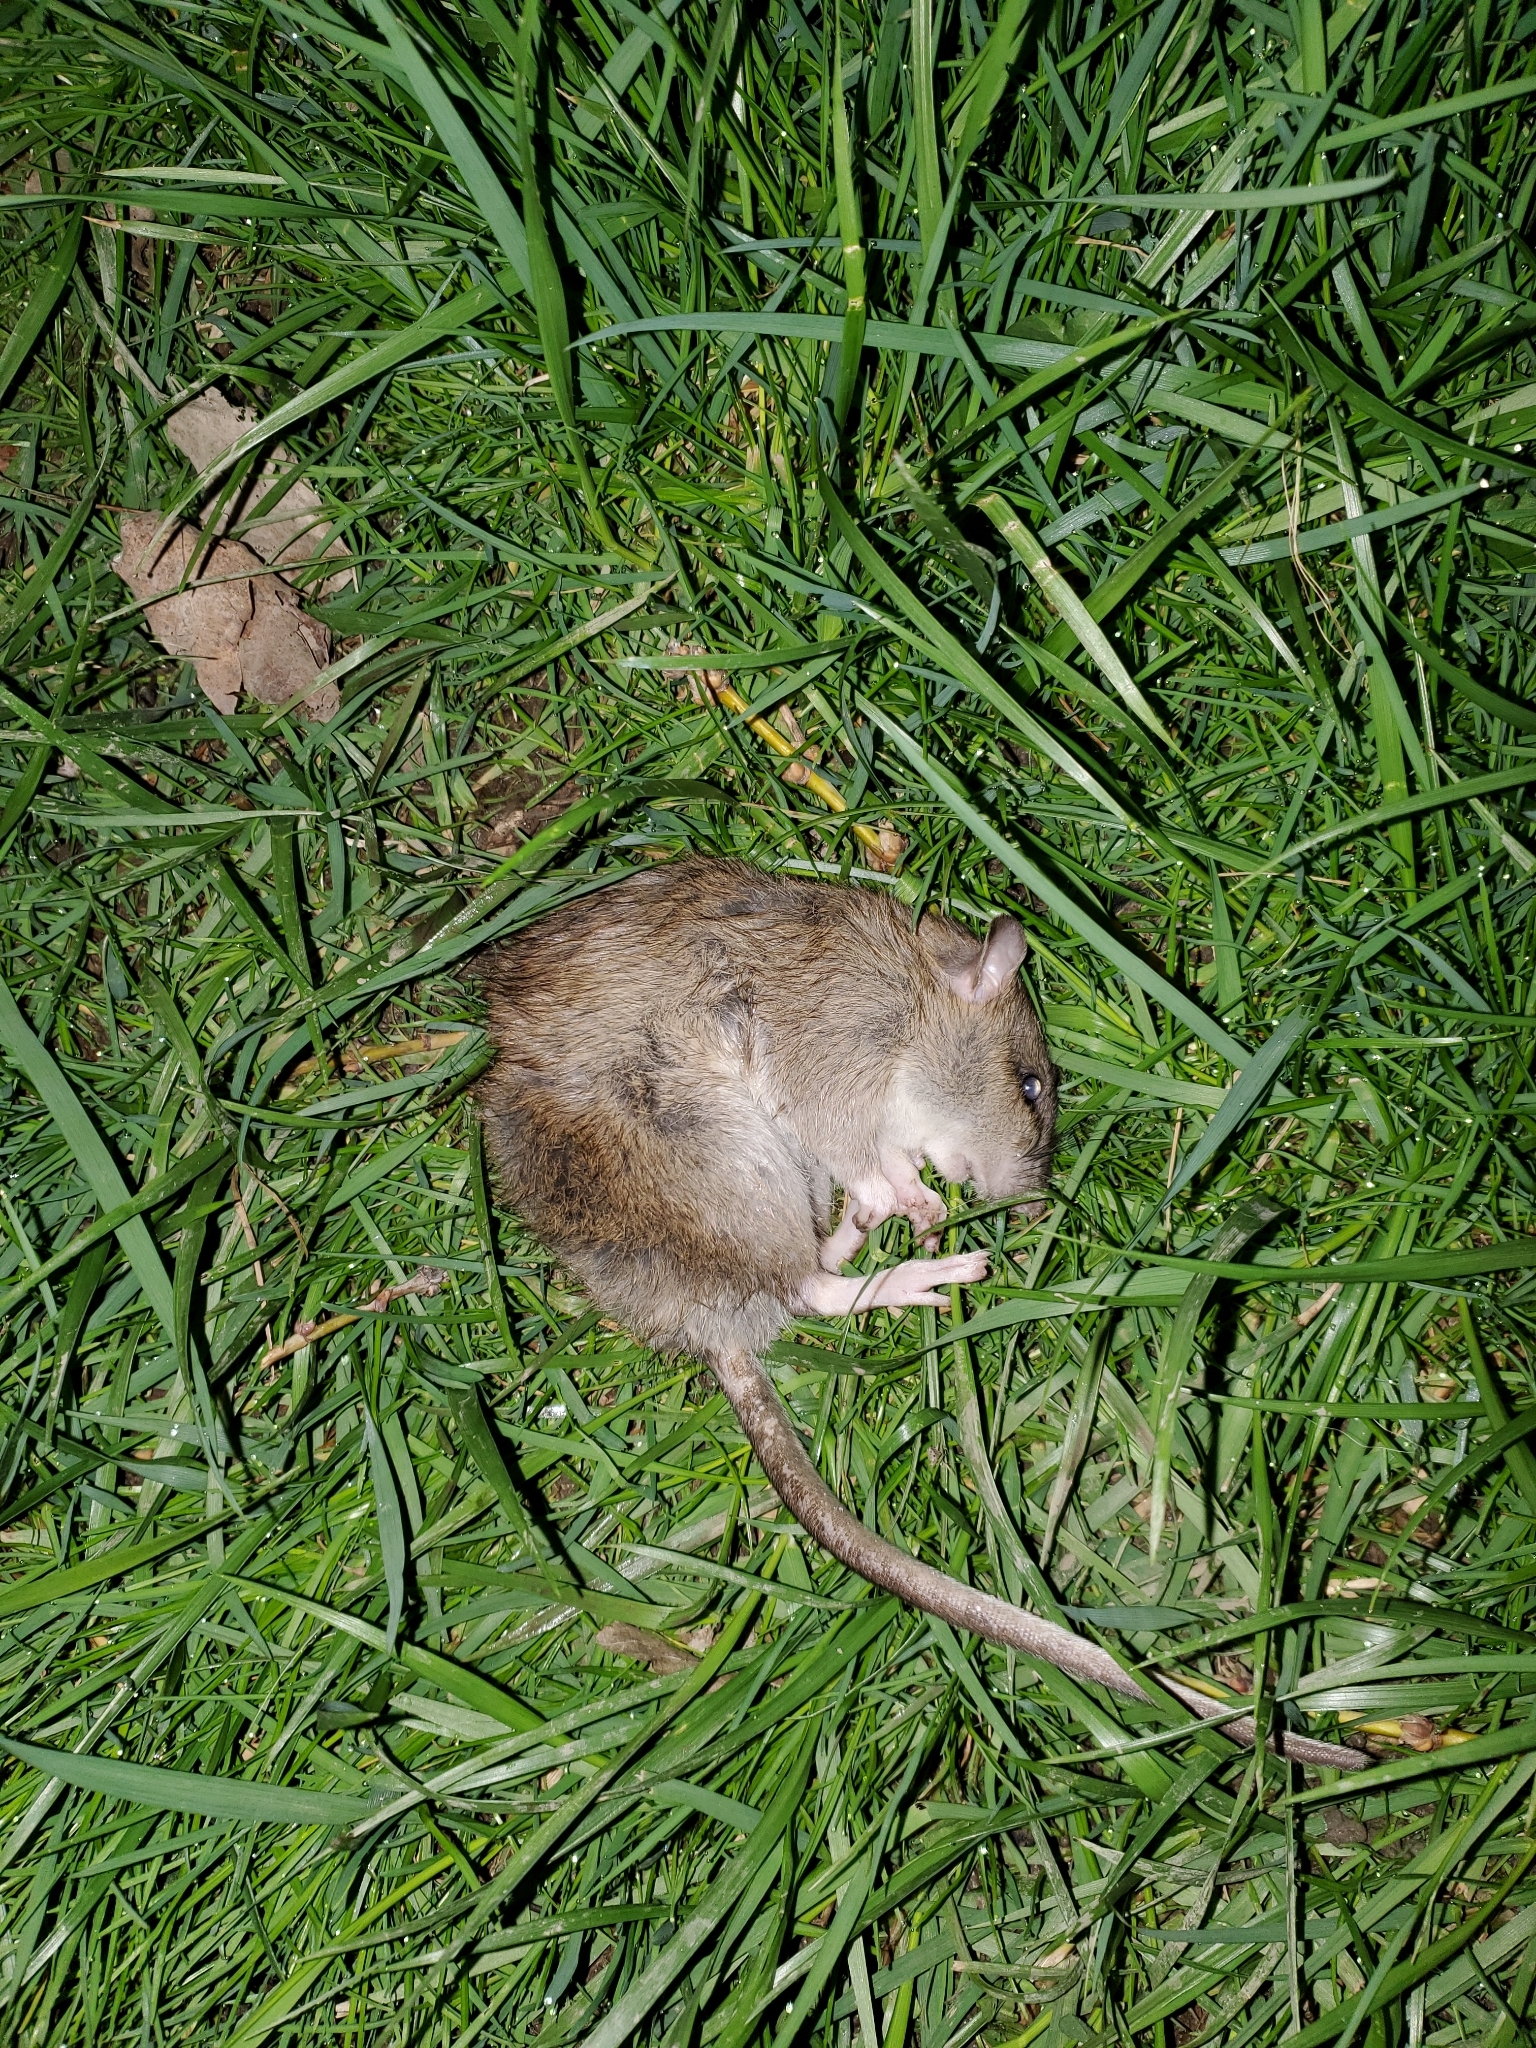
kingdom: Animalia
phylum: Chordata
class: Mammalia
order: Rodentia
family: Muridae
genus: Rattus
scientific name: Rattus norvegicus
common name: Brown rat
